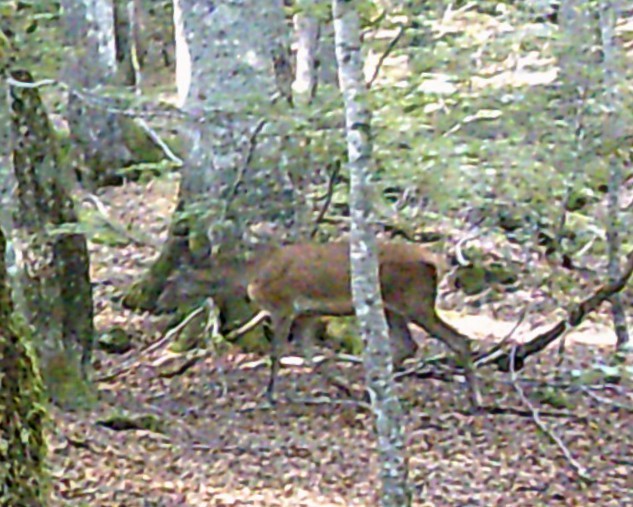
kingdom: Animalia
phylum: Chordata
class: Mammalia
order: Artiodactyla
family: Cervidae
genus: Cervus
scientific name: Cervus elaphus
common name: Red deer
